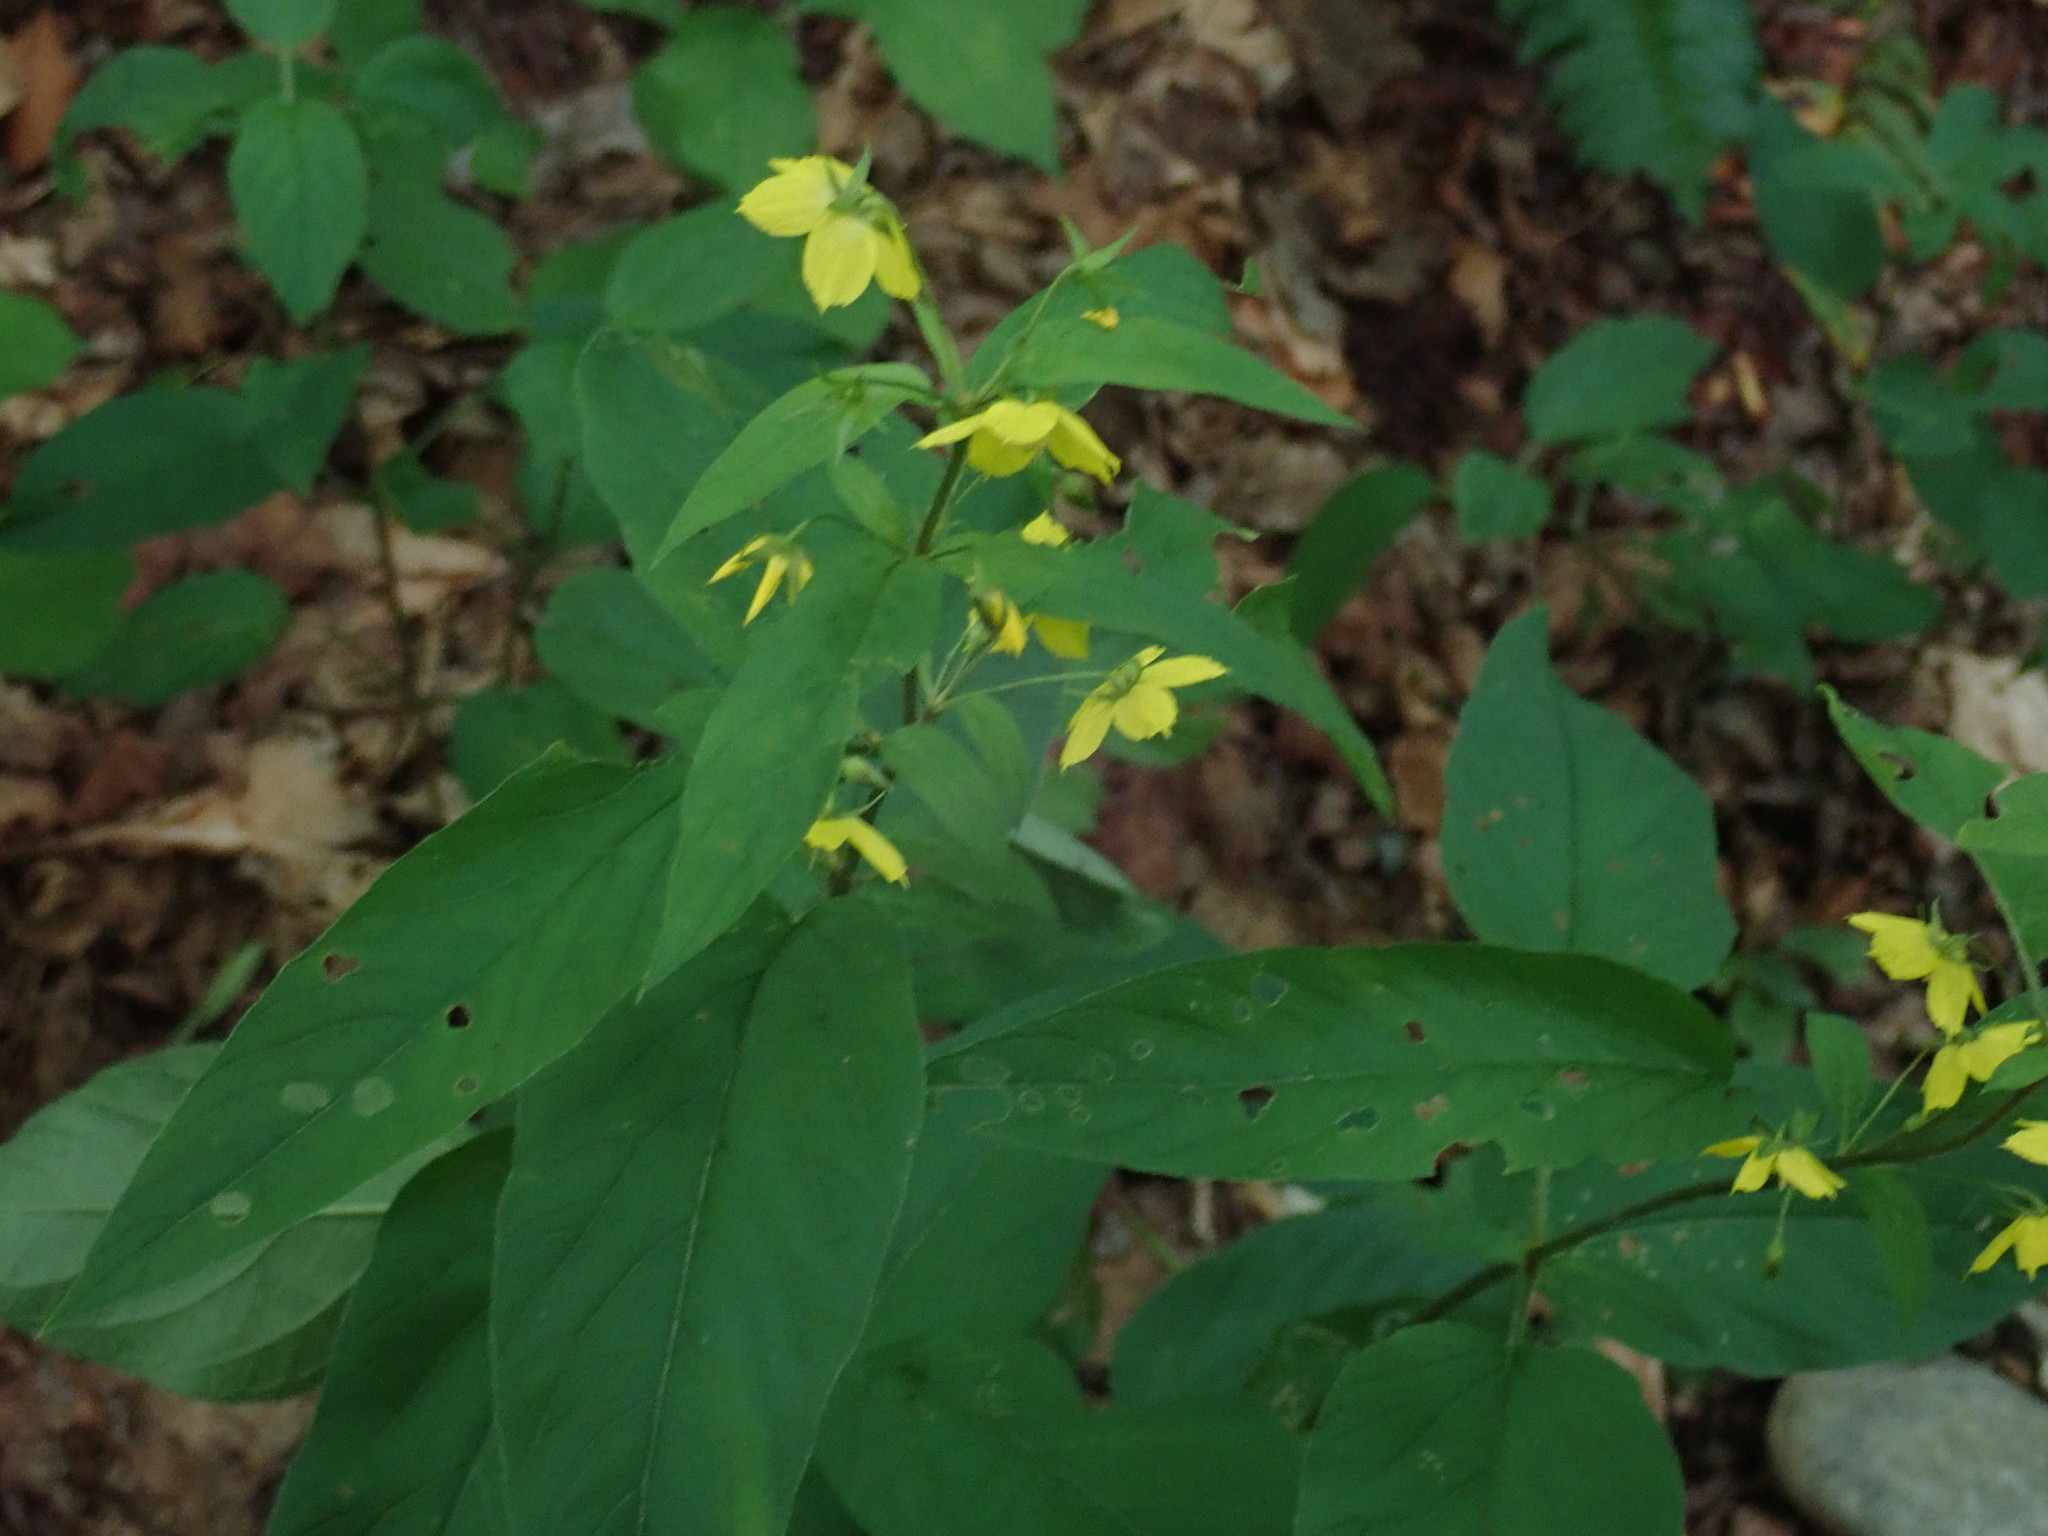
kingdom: Plantae
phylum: Tracheophyta
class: Magnoliopsida
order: Ericales
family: Primulaceae
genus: Lysimachia
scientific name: Lysimachia ciliata
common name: Fringed loosestrife
